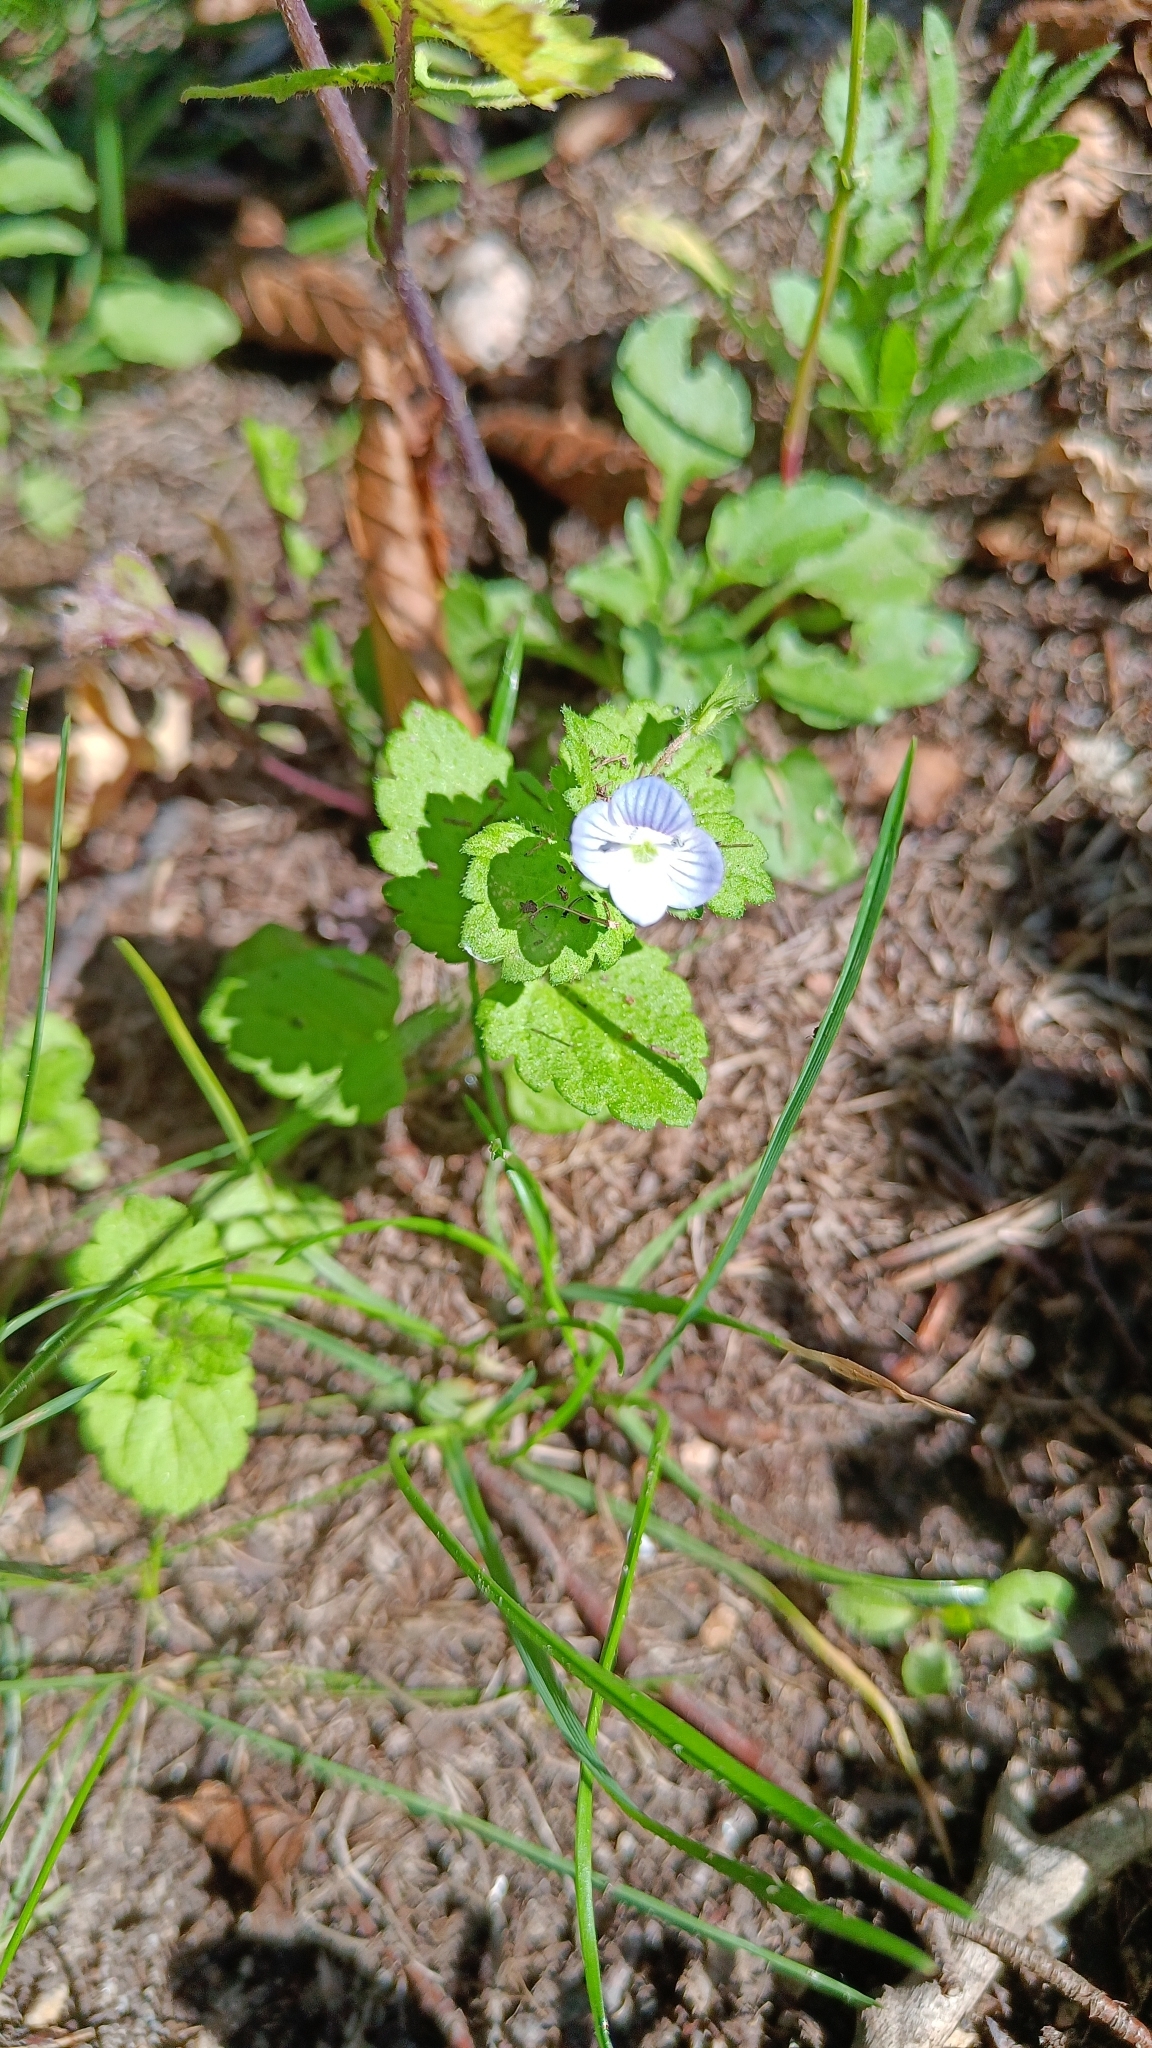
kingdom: Plantae
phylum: Tracheophyta
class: Magnoliopsida
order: Lamiales
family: Plantaginaceae
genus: Veronica
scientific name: Veronica persica
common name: Common field-speedwell
